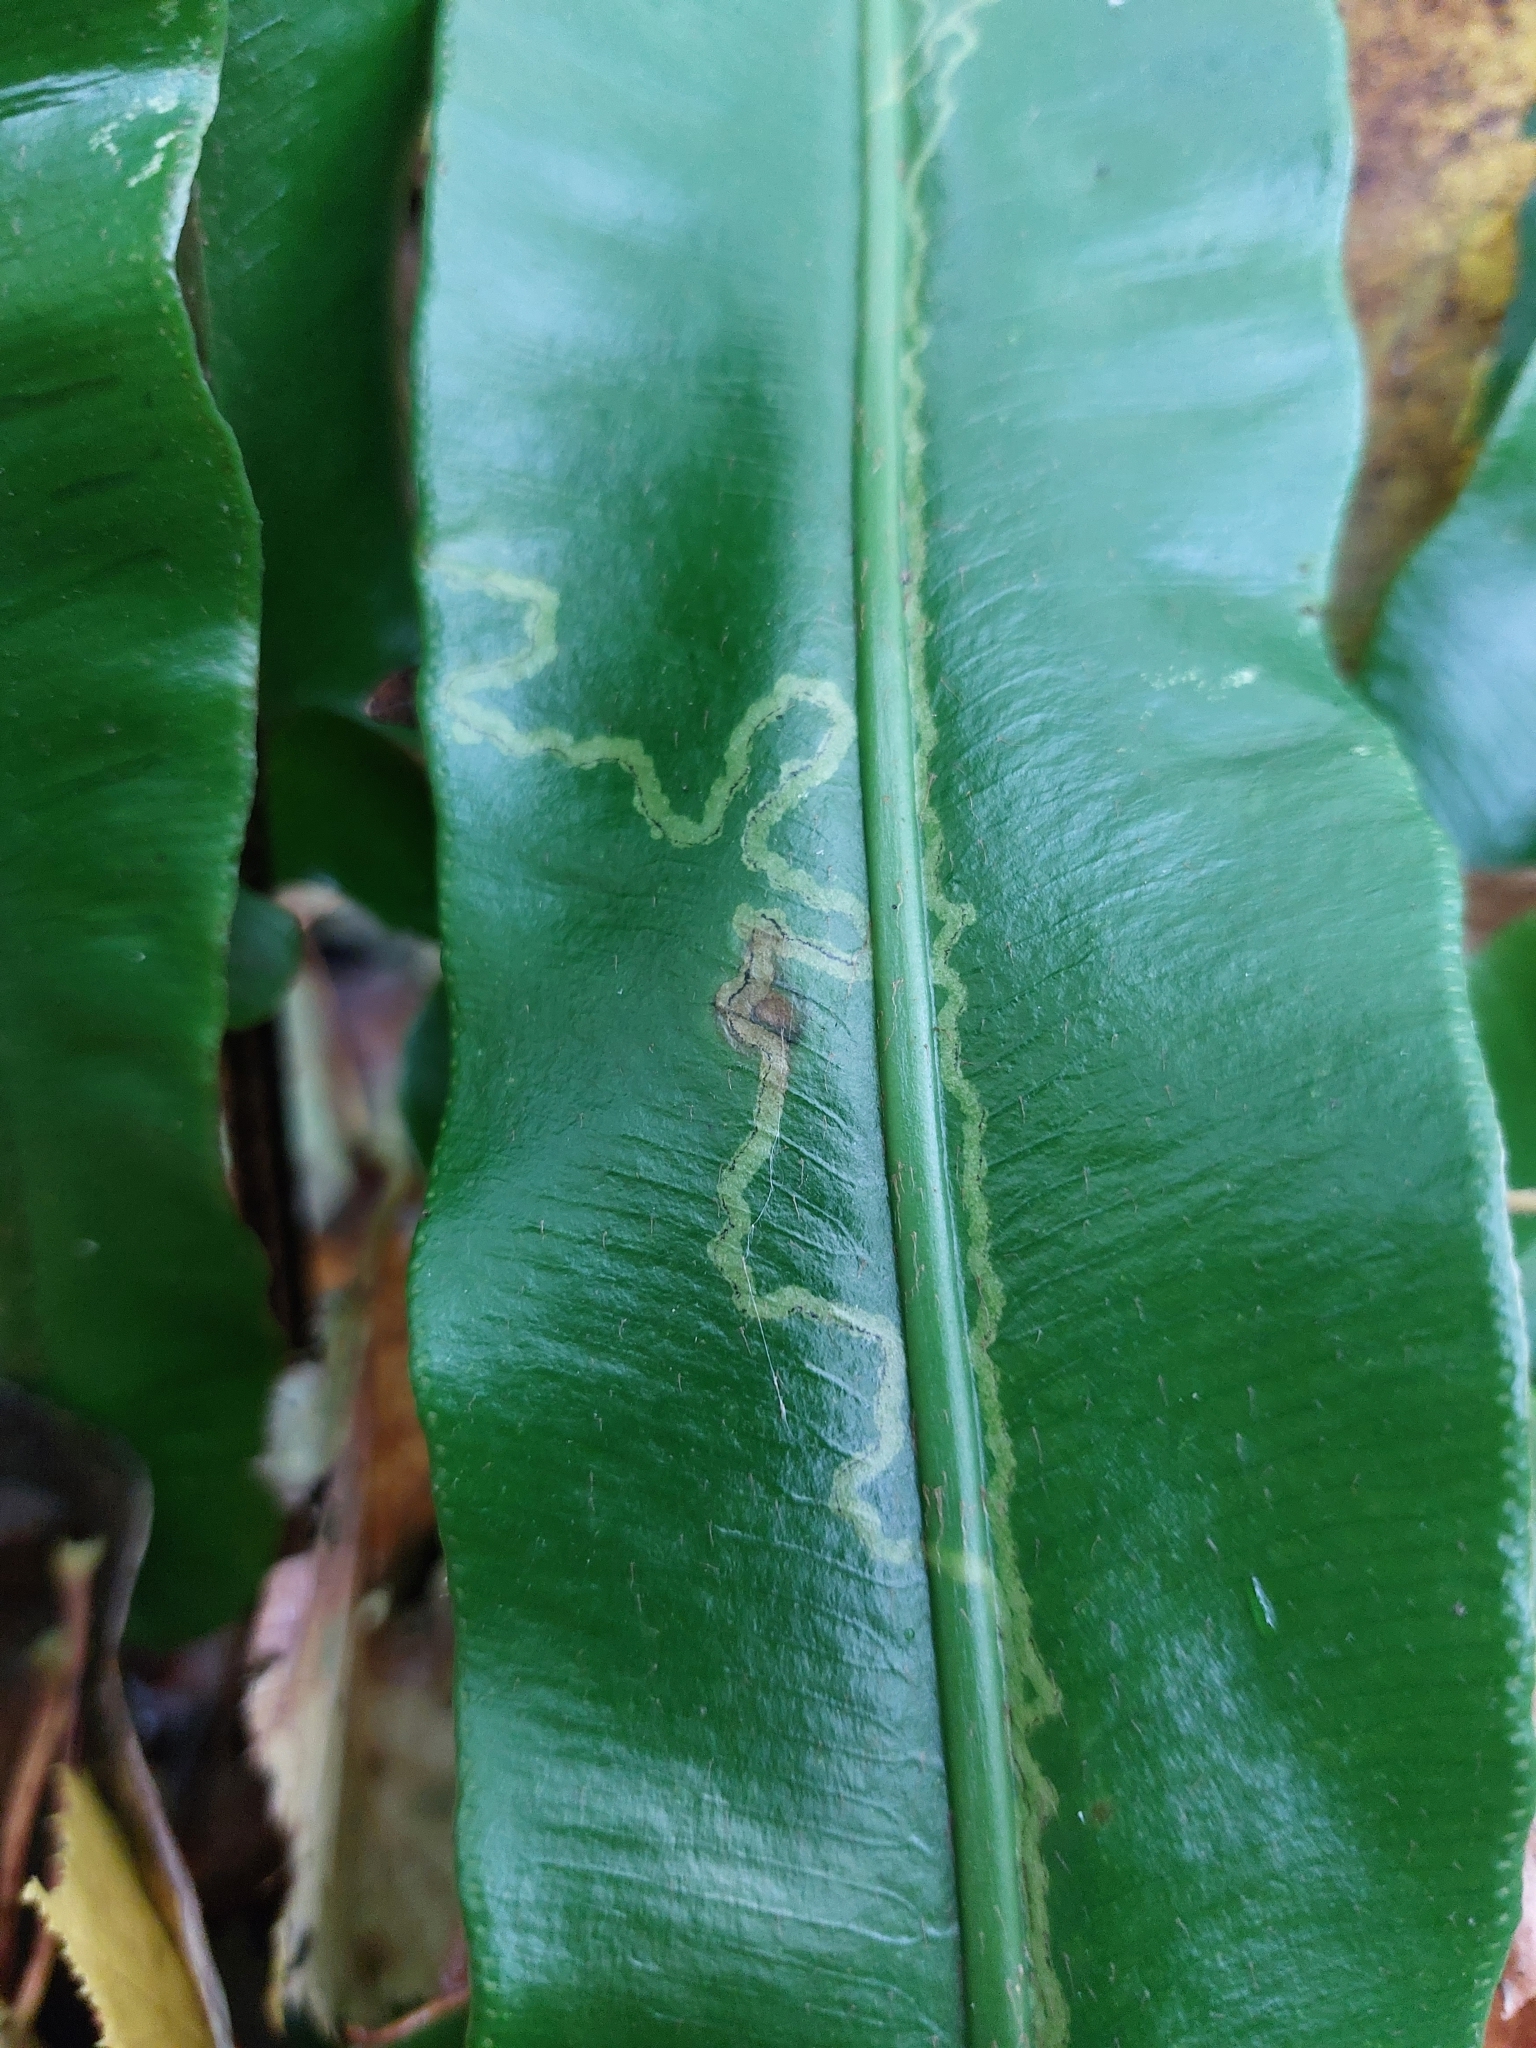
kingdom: Plantae
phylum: Tracheophyta
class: Polypodiopsida
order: Polypodiales
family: Aspleniaceae
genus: Asplenium
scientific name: Asplenium scolopendrium
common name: Hart's-tongue fern
